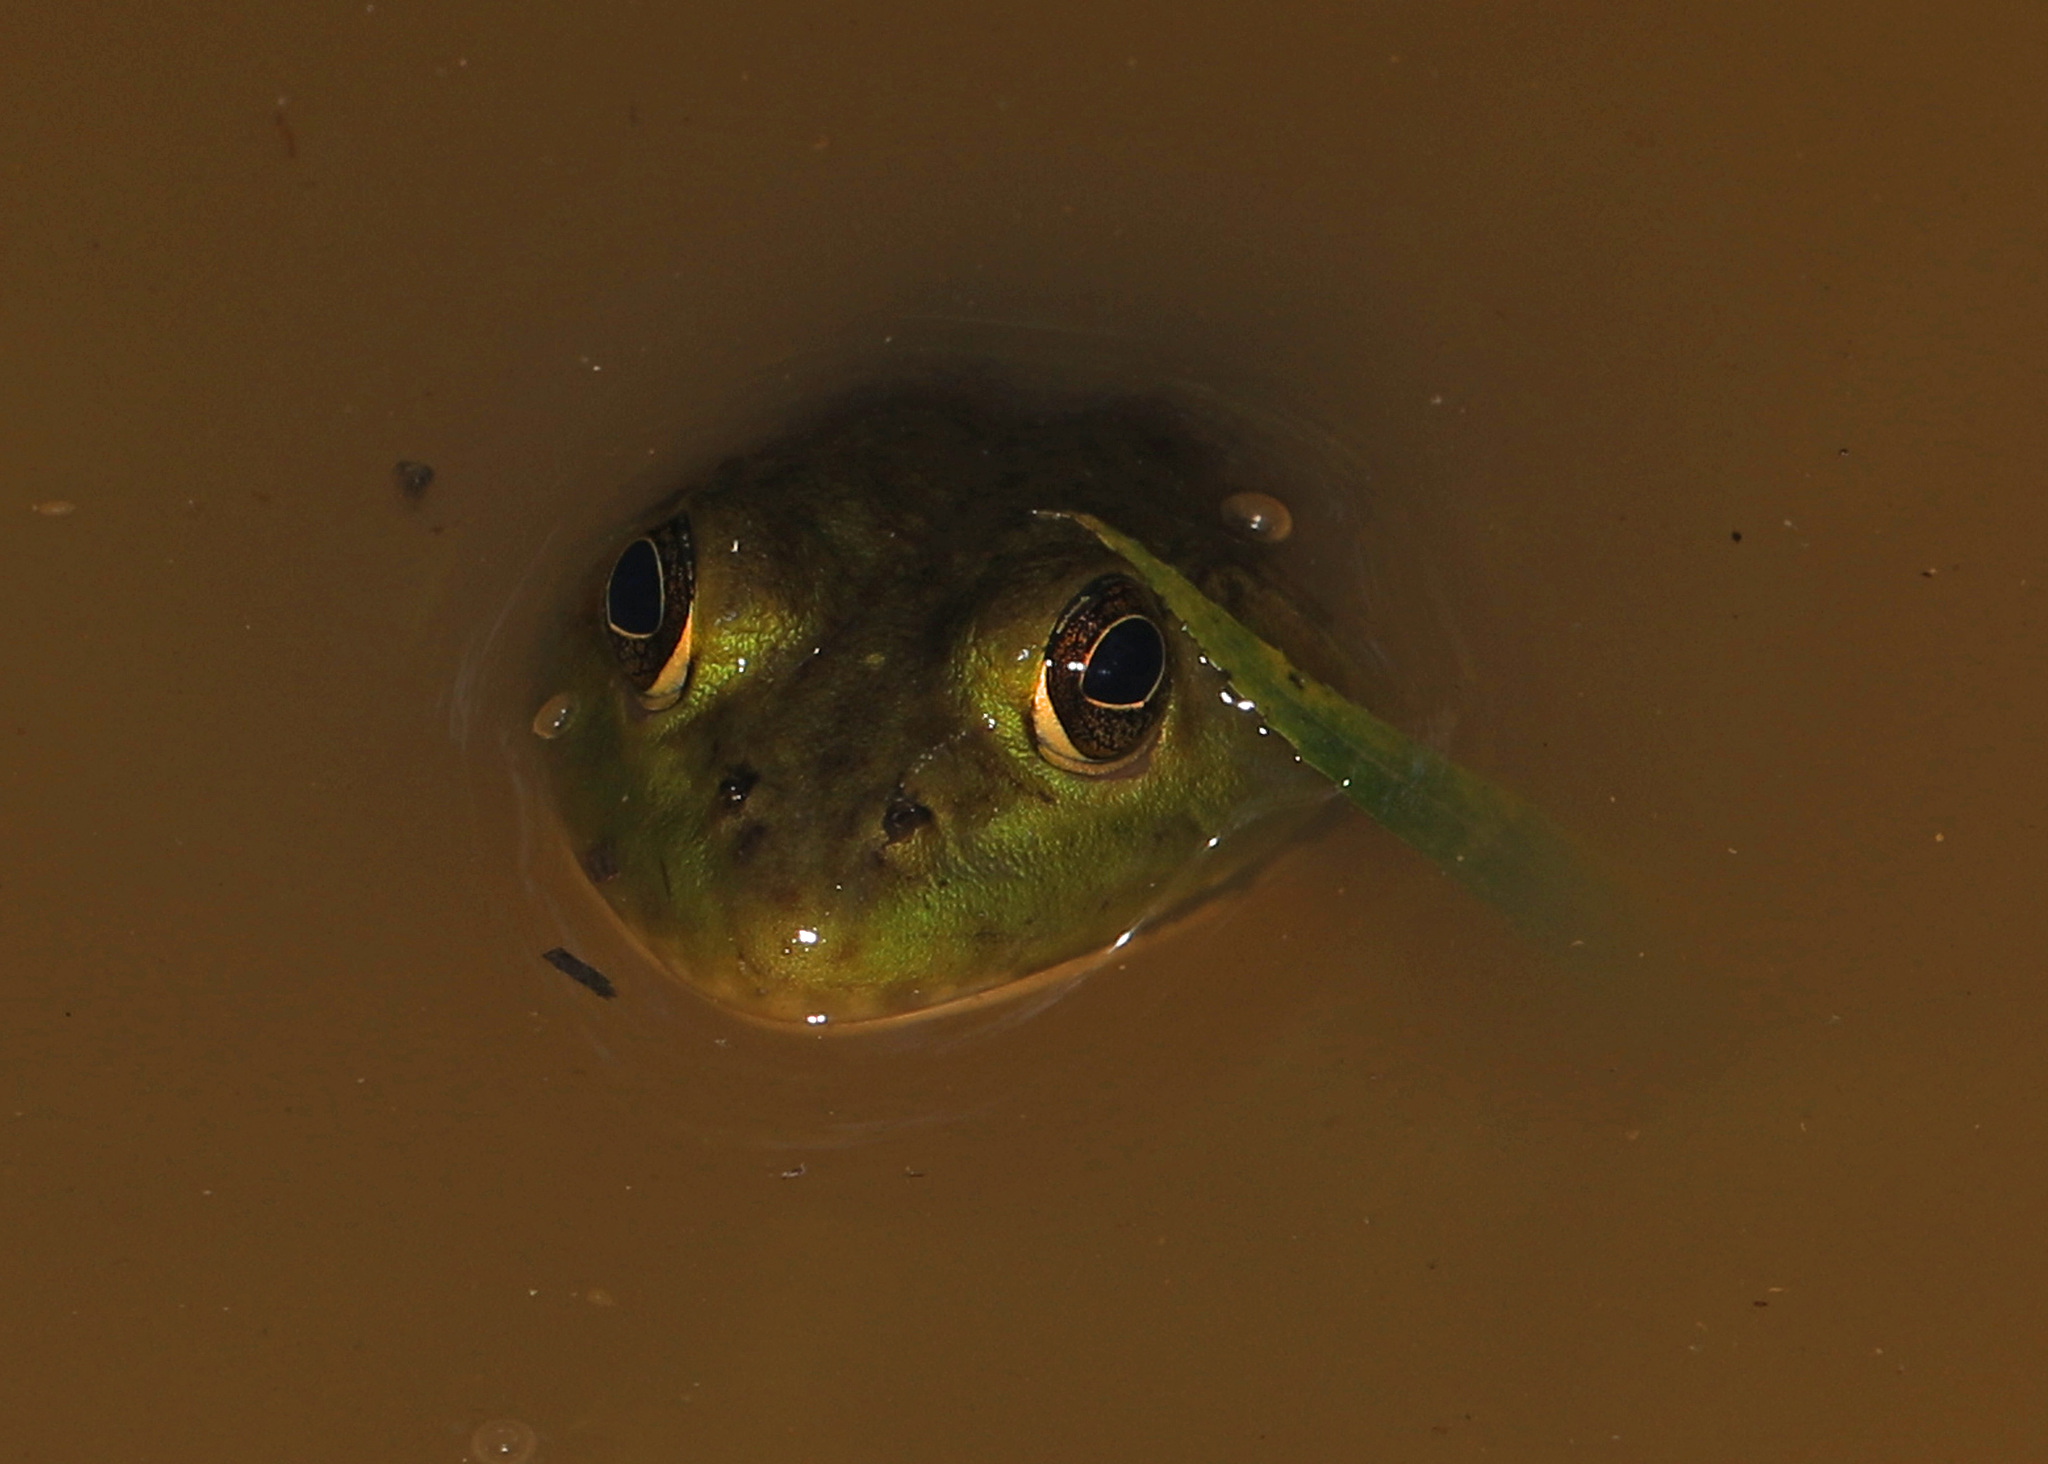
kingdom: Animalia
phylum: Chordata
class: Amphibia
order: Anura
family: Ranidae
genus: Lithobates
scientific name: Lithobates catesbeianus
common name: American bullfrog
